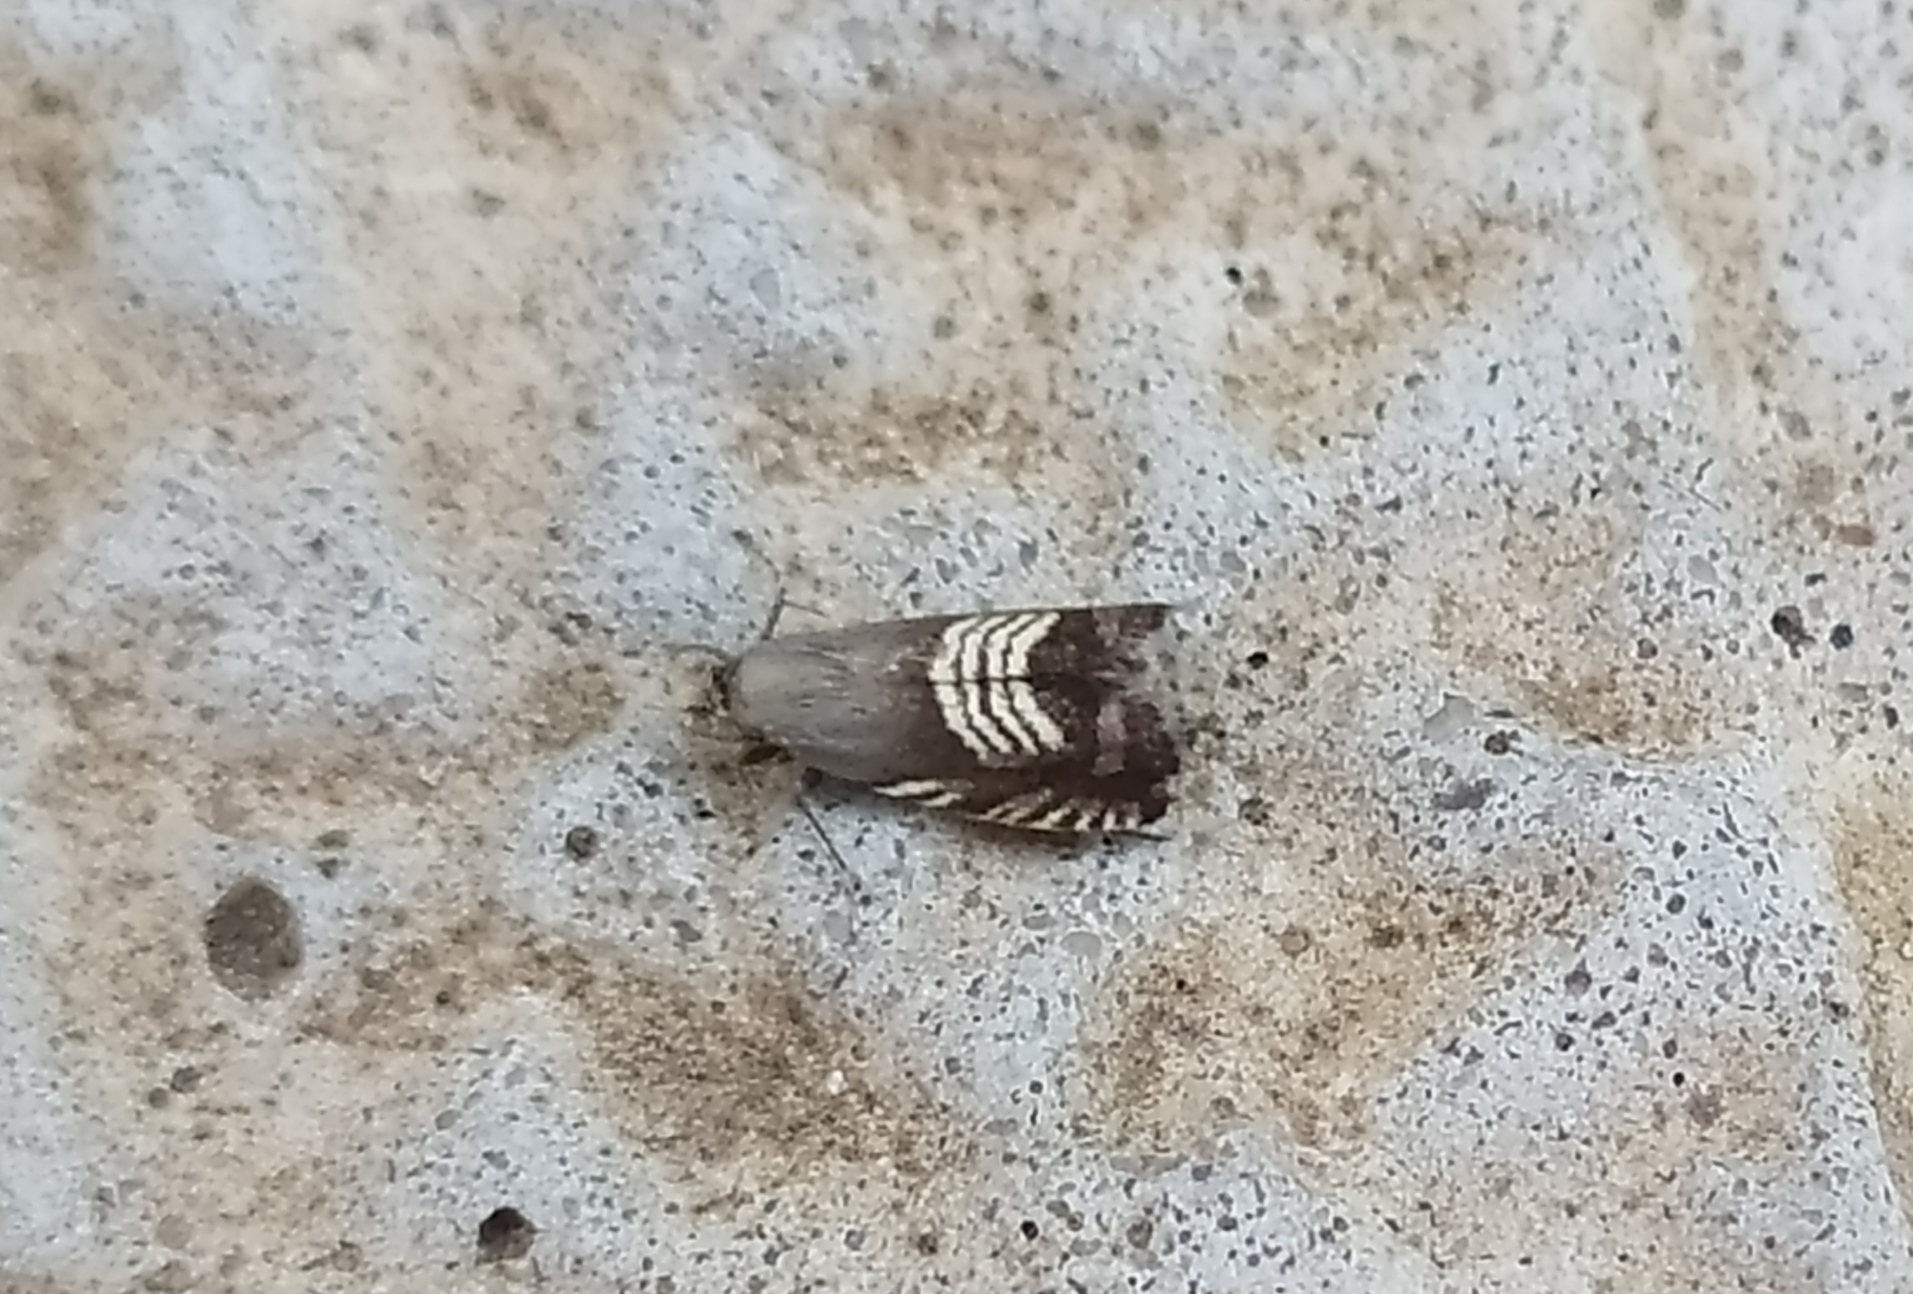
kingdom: Animalia
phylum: Arthropoda
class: Insecta
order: Lepidoptera
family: Tortricidae
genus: Grapholita
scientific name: Grapholita compositella
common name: Triple-stripe piercer
